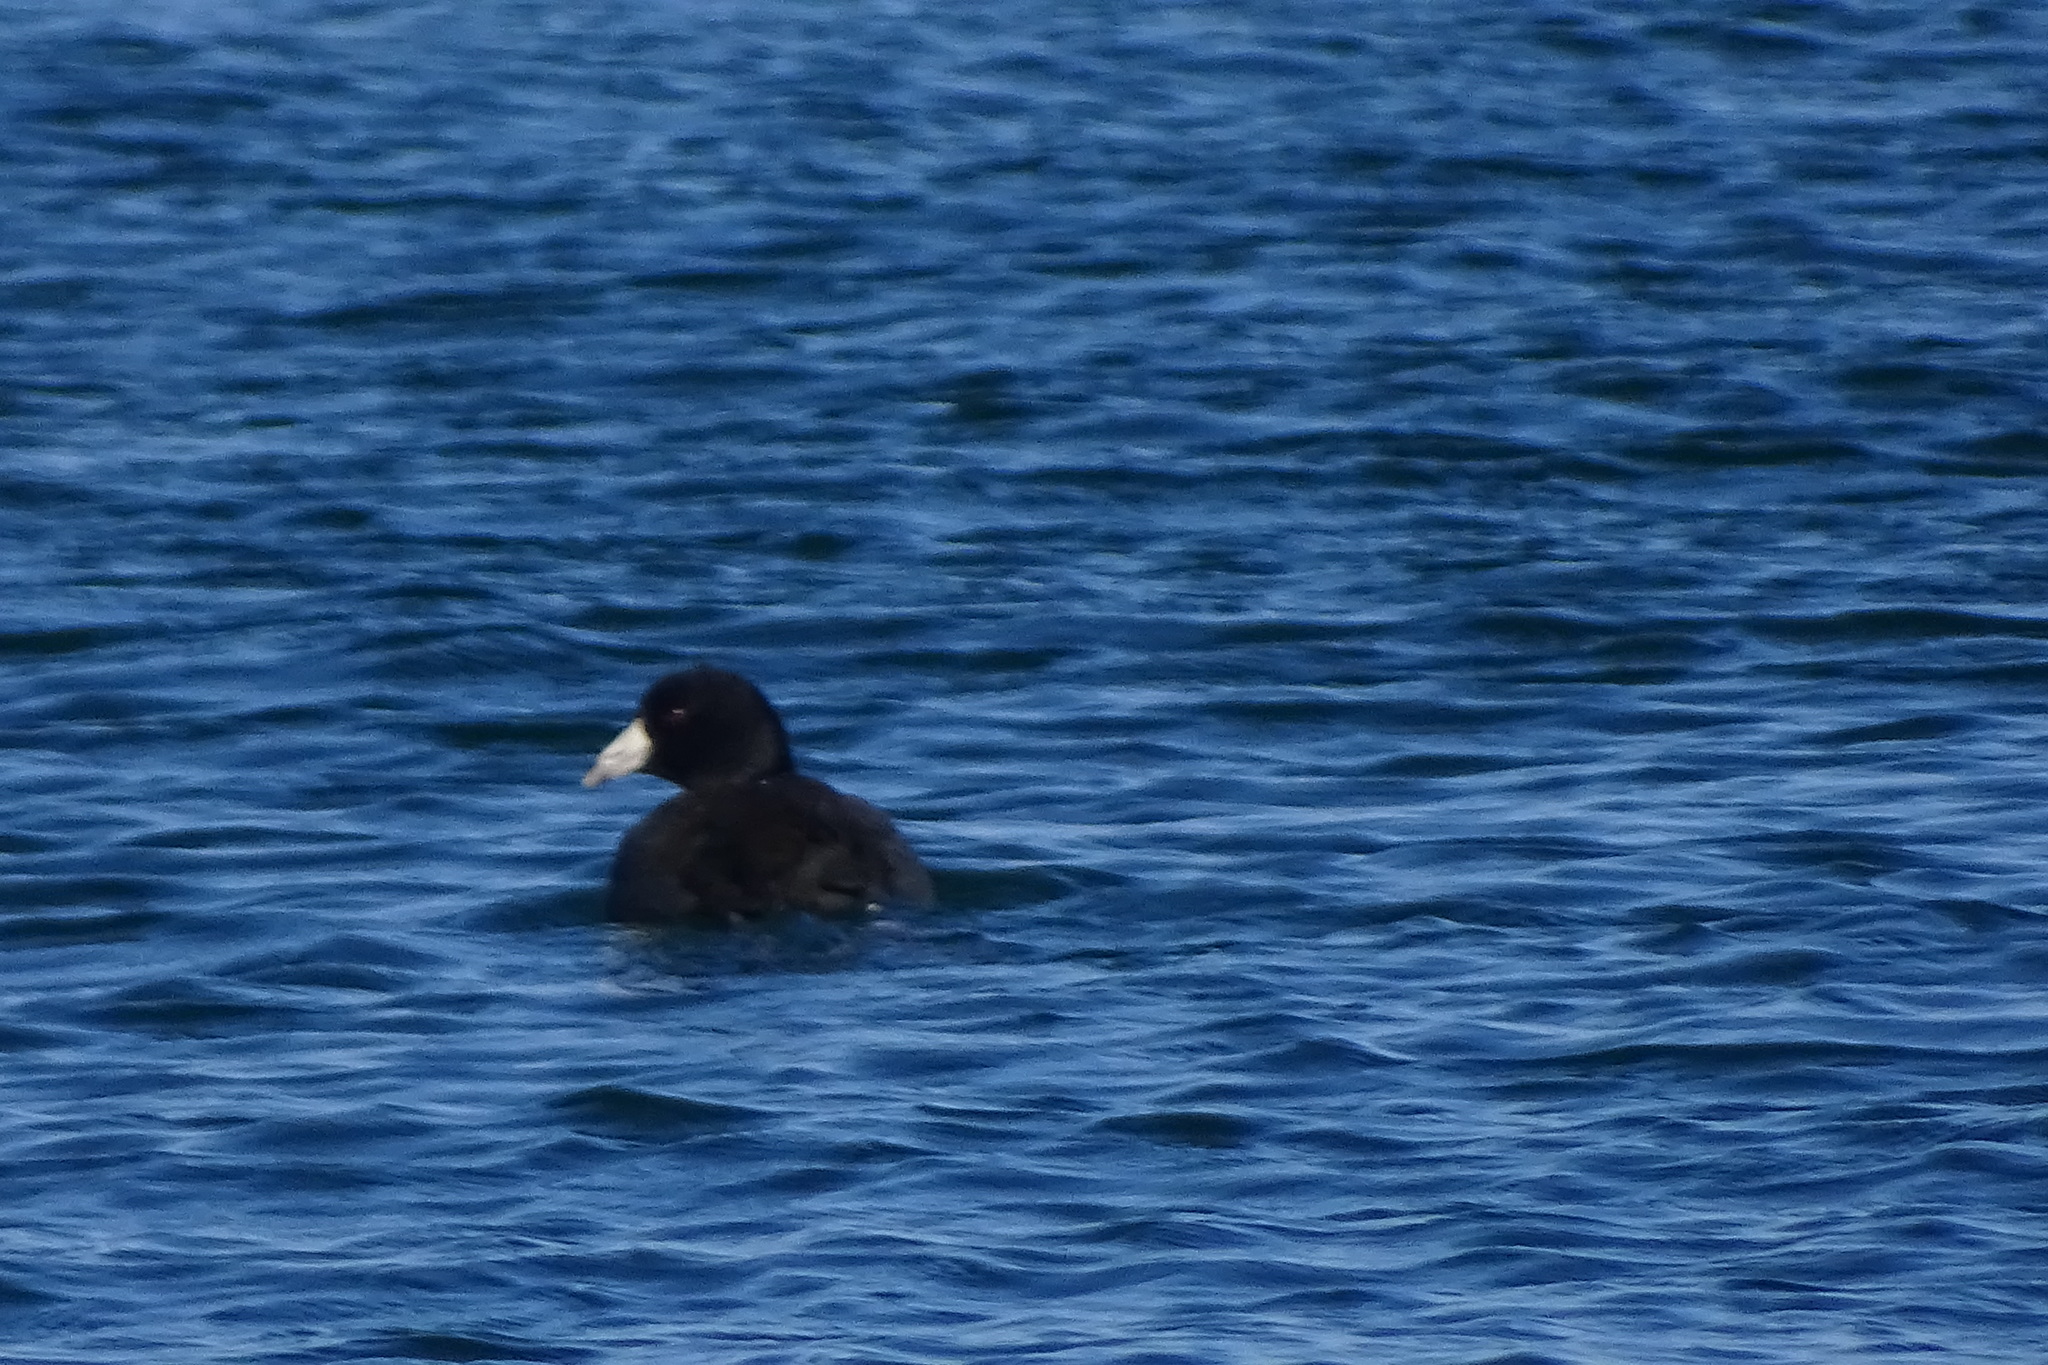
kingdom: Animalia
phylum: Chordata
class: Aves
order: Gruiformes
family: Rallidae
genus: Fulica
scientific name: Fulica americana
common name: American coot
